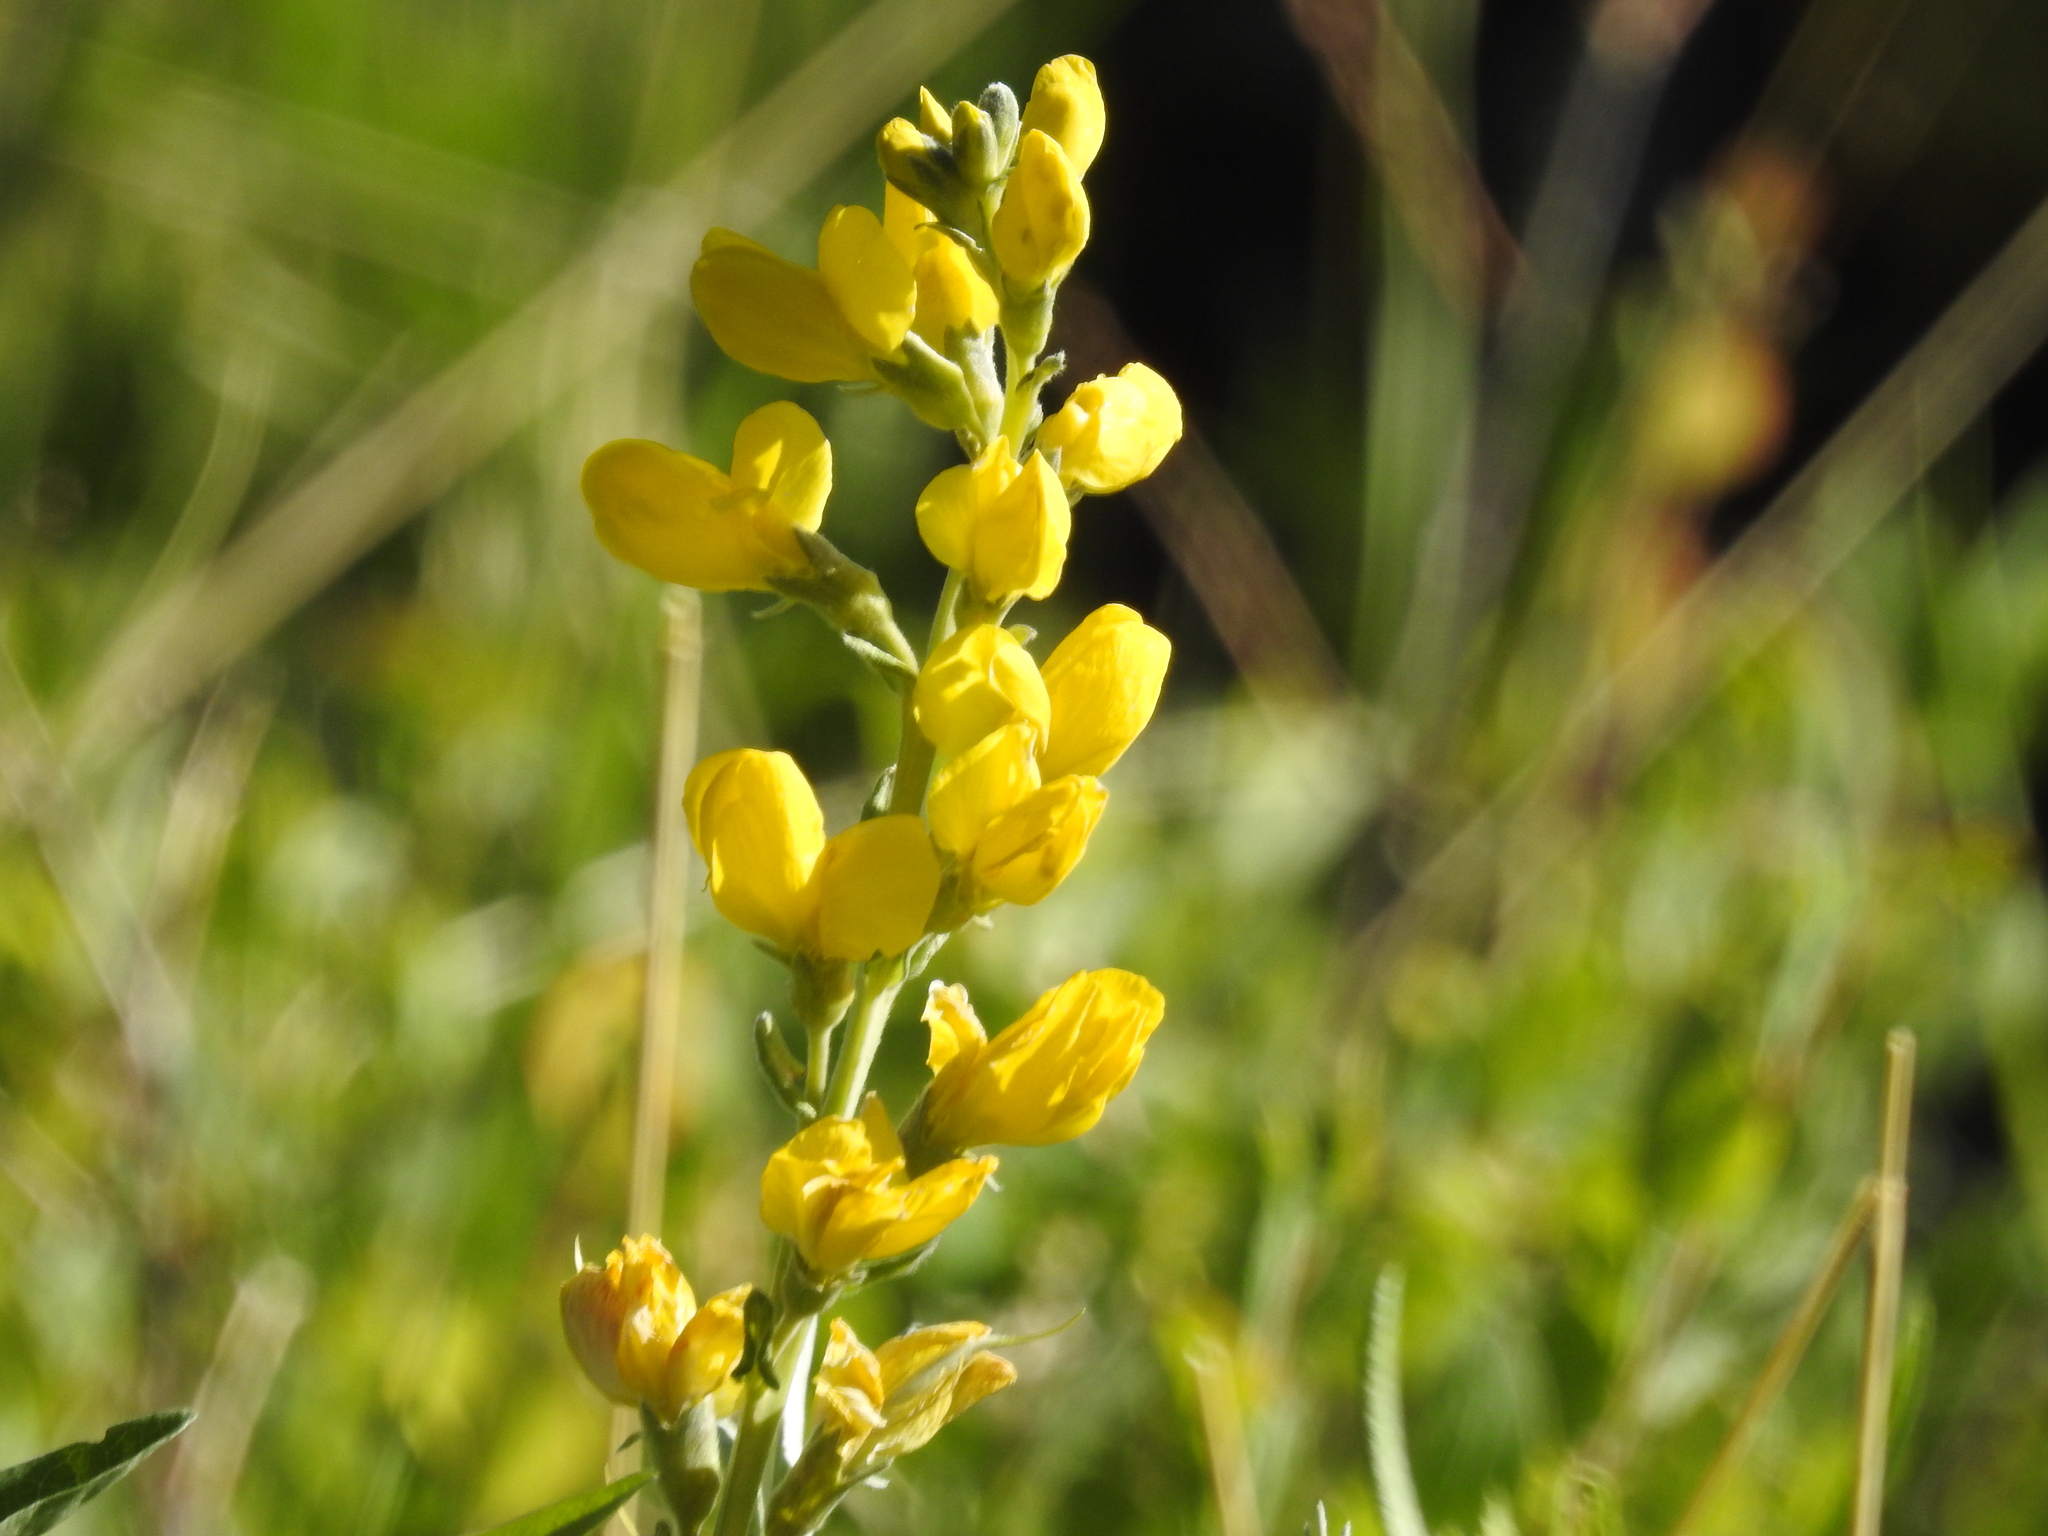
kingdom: Plantae
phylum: Tracheophyta
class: Magnoliopsida
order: Fabales
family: Fabaceae
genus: Thermopsis
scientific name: Thermopsis montana
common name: False lupin
